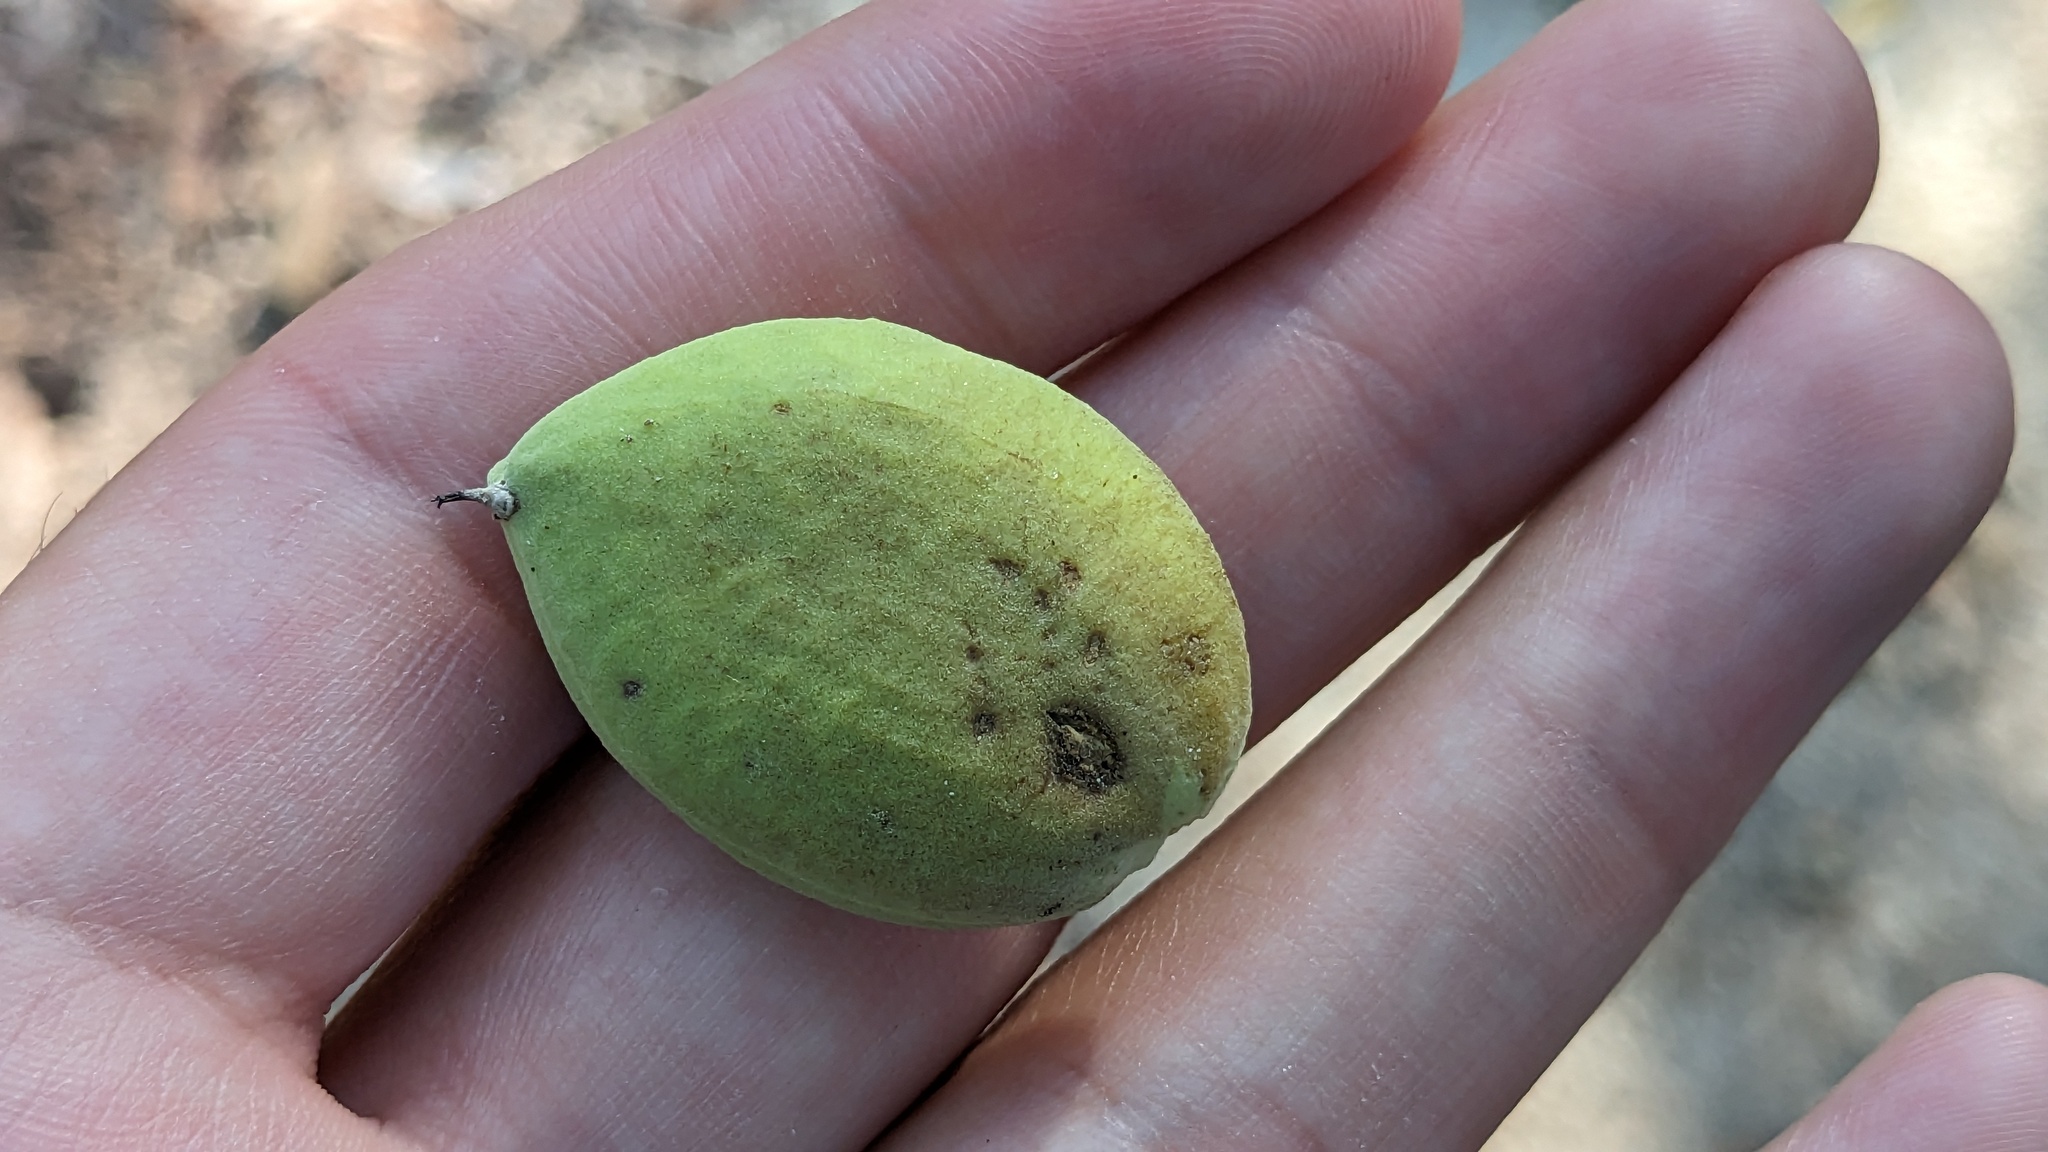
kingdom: Plantae
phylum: Tracheophyta
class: Magnoliopsida
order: Lamiales
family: Acanthaceae
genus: Avicennia
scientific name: Avicennia germinans
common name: Black mangrove
